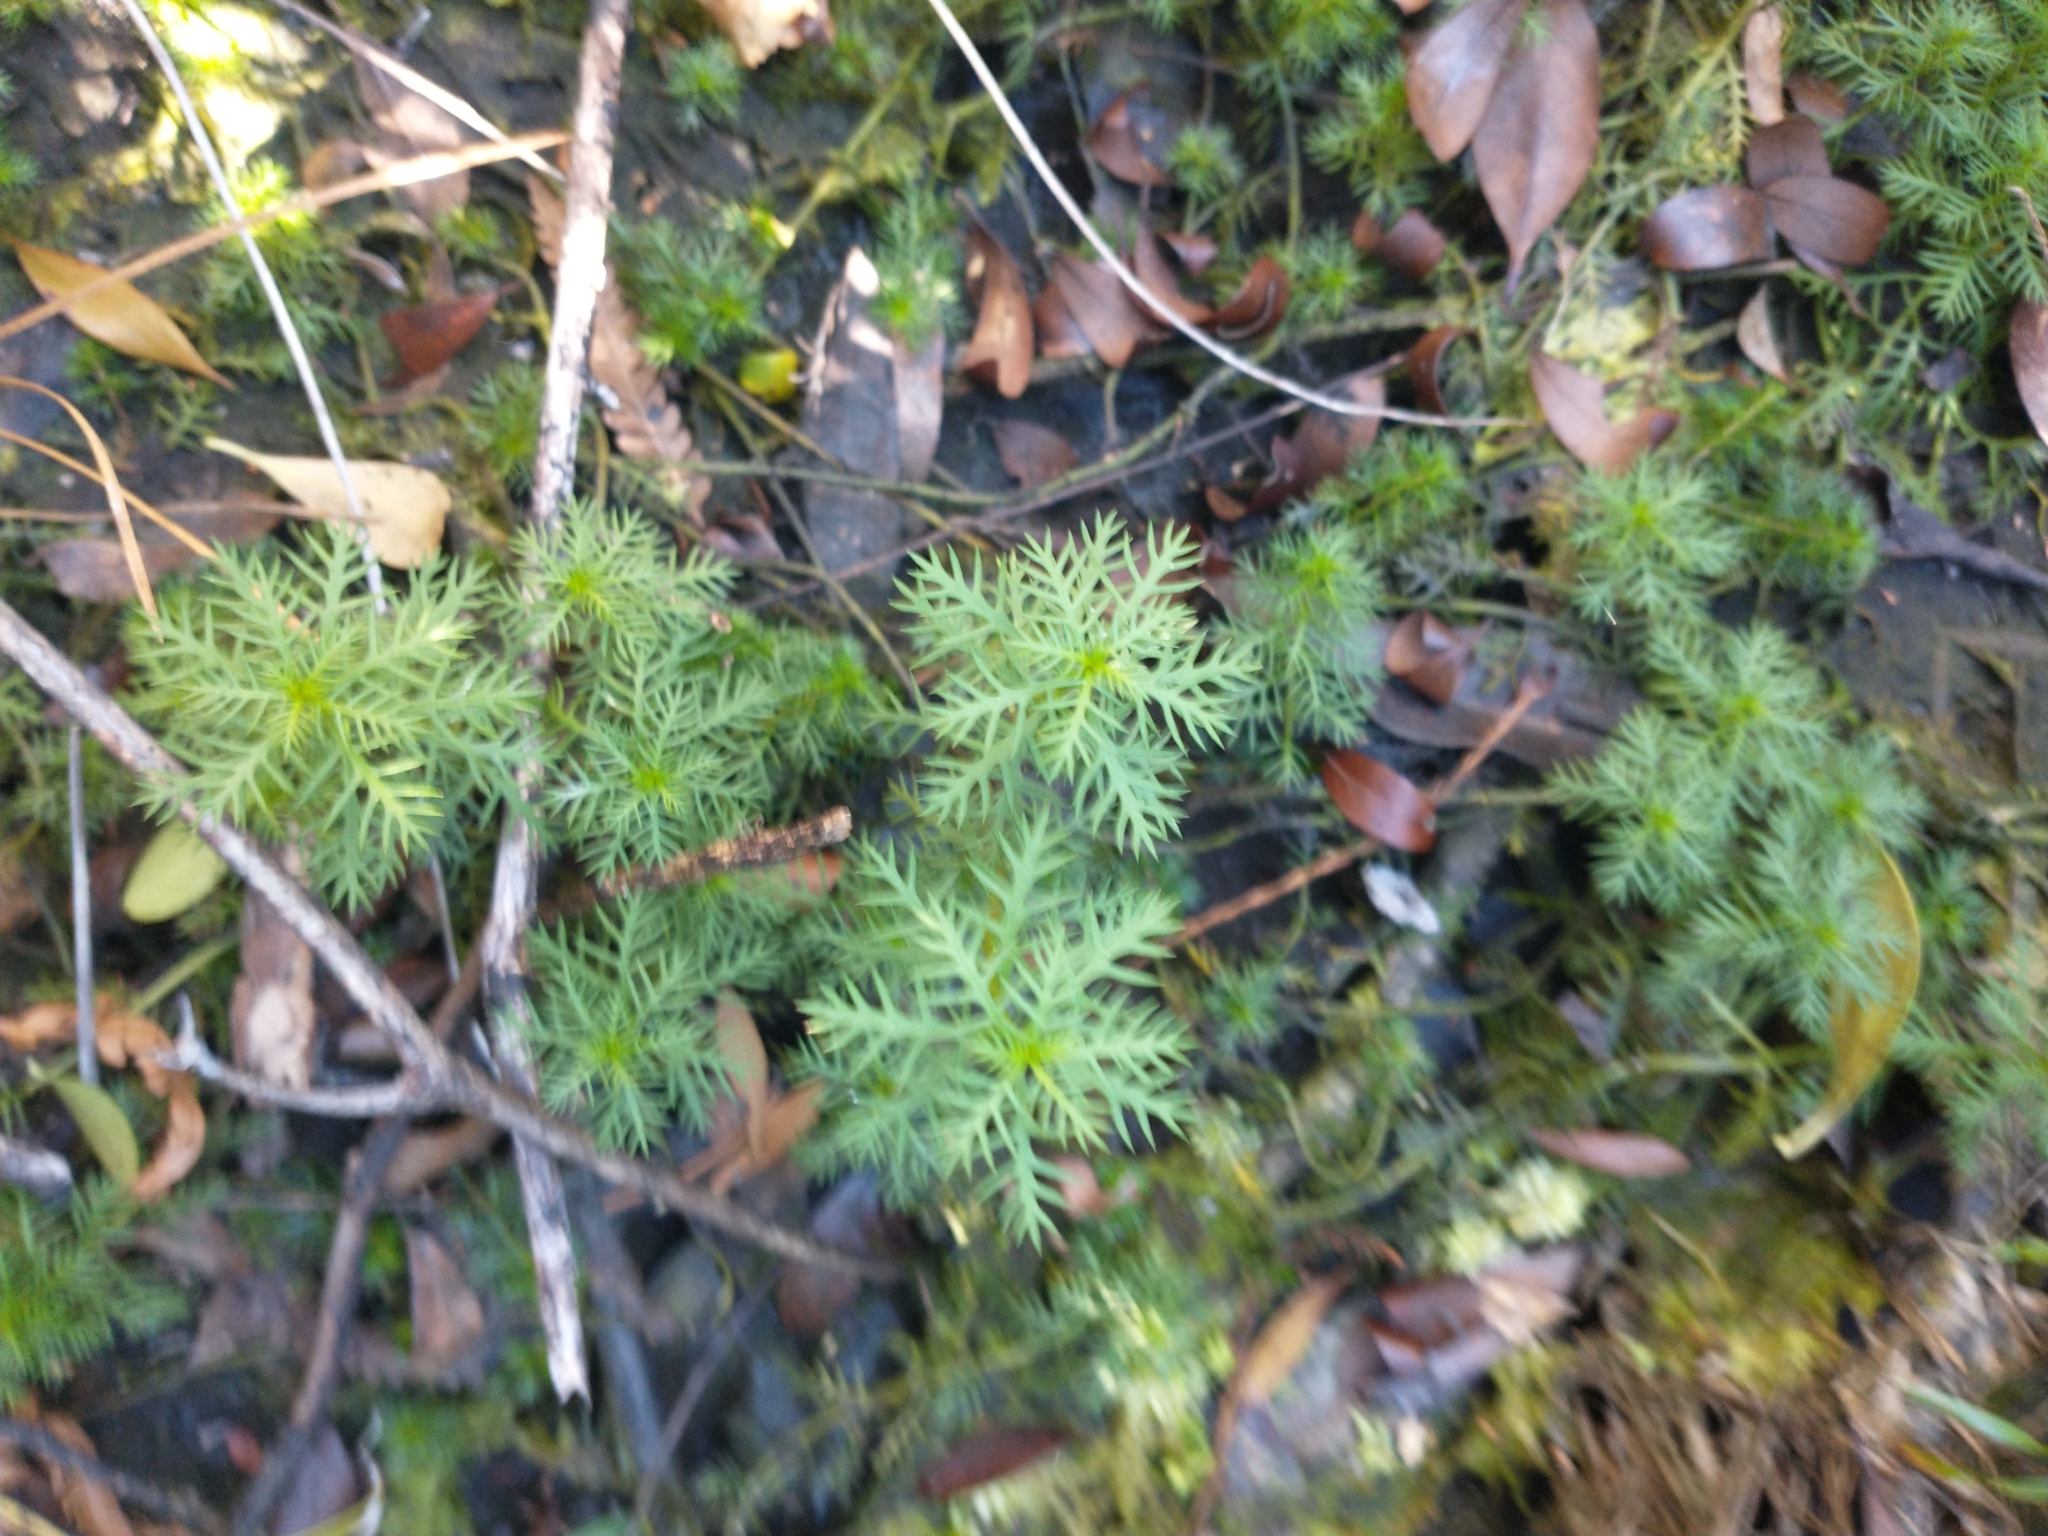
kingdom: Plantae
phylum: Tracheophyta
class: Magnoliopsida
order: Saxifragales
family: Haloragaceae
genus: Proserpinaca
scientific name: Proserpinaca pectinata
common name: Comb-leaved mermaidweed
